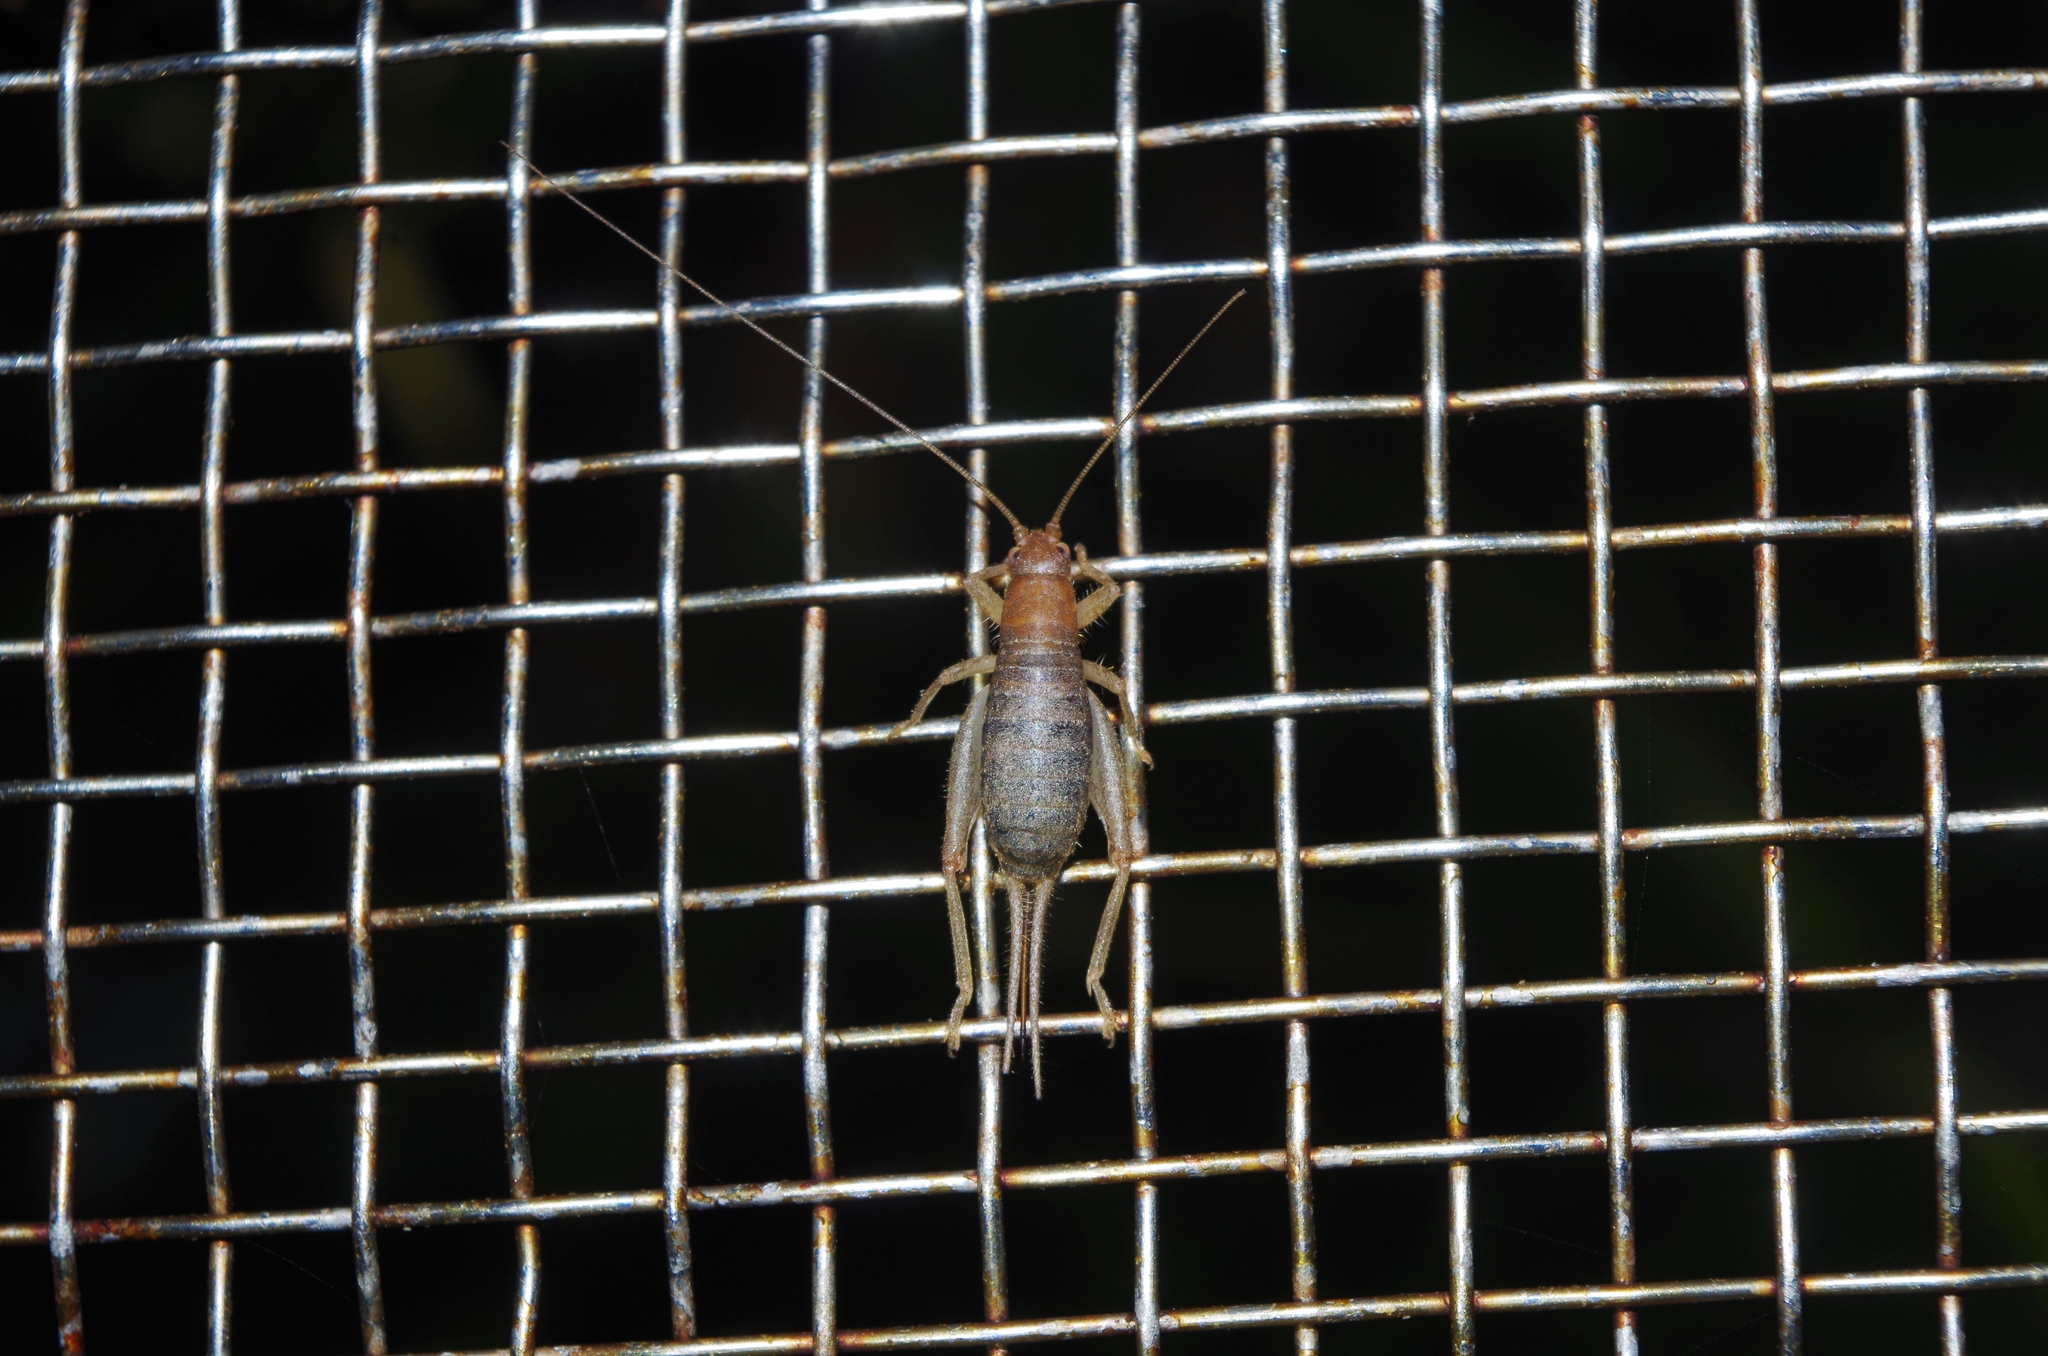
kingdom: Animalia
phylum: Arthropoda
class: Insecta
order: Orthoptera
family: Mogoplistidae
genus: Ornebius
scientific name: Ornebius bimaculatus
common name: Cricket
